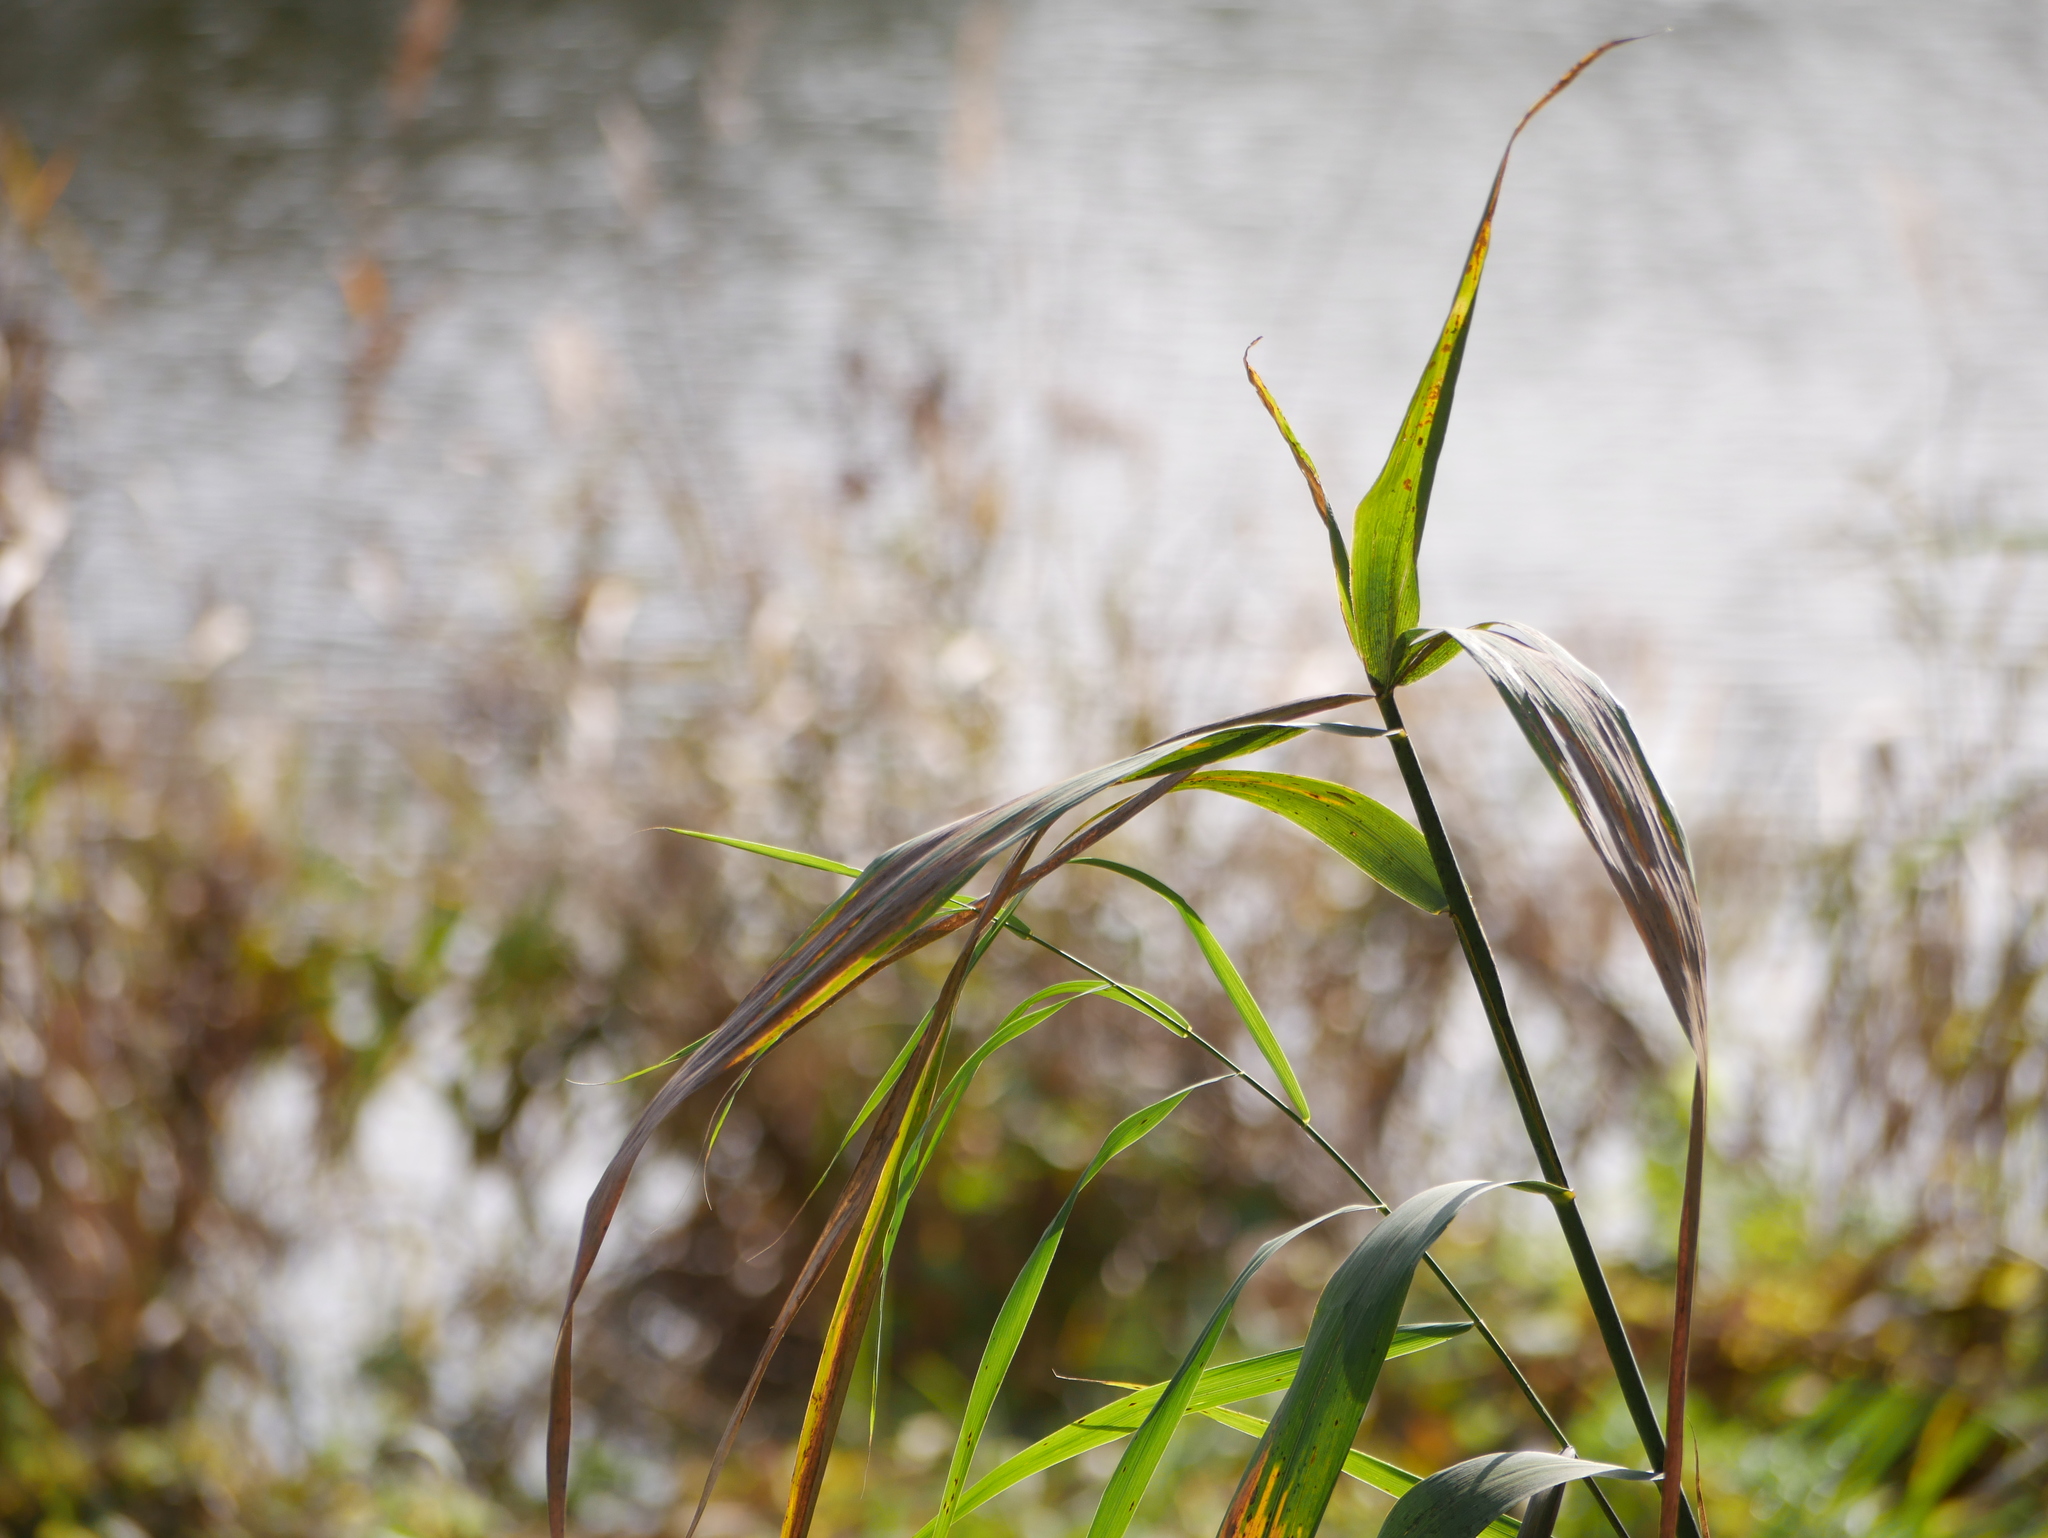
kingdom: Plantae
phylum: Tracheophyta
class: Liliopsida
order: Poales
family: Poaceae
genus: Phragmites
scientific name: Phragmites australis
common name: Common reed
